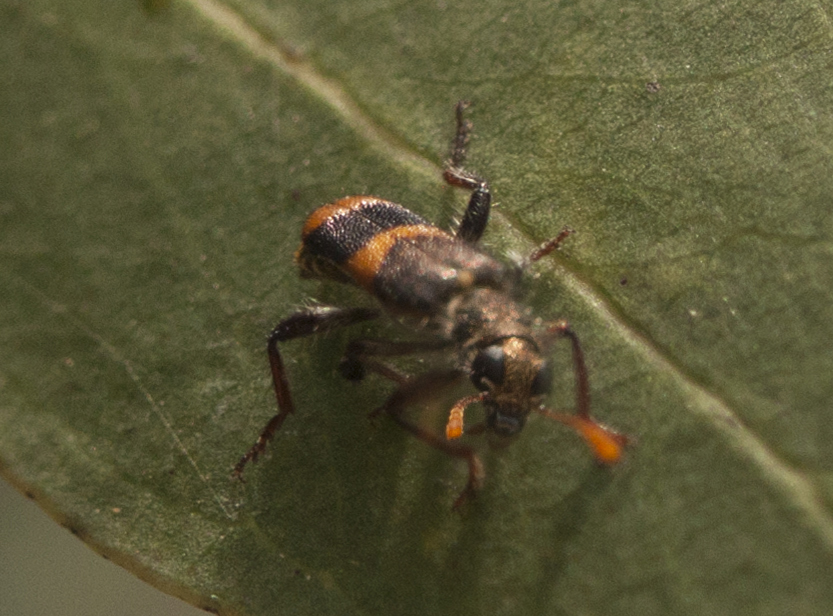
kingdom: Animalia
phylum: Arthropoda
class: Insecta
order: Coleoptera
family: Cleridae
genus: Eleale
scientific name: Eleale
